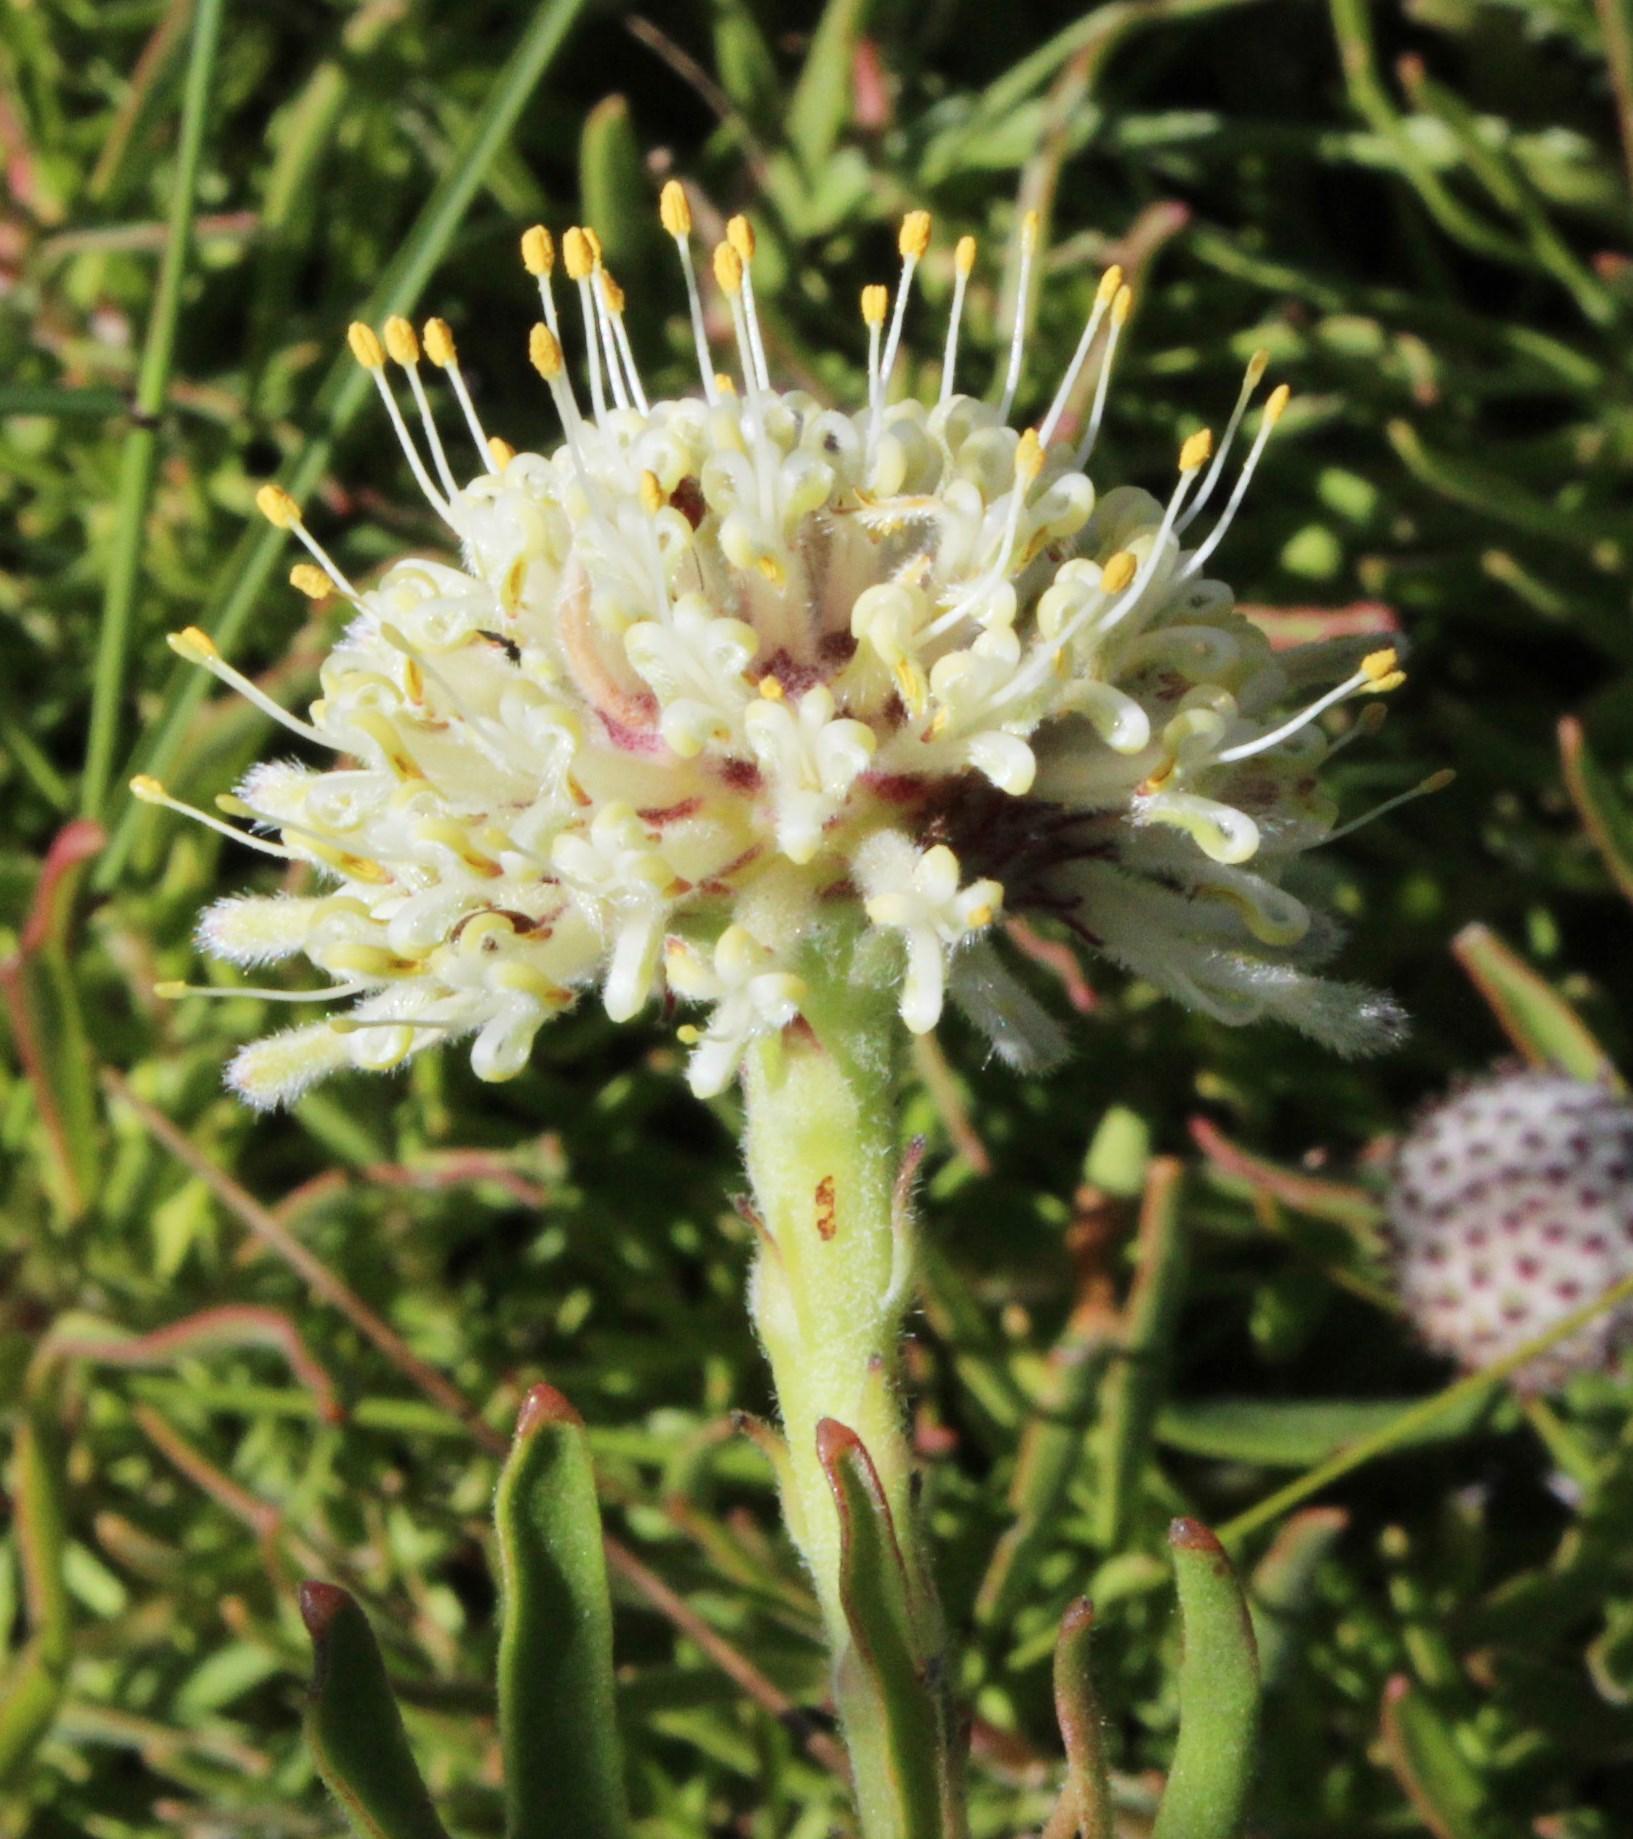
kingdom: Plantae
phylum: Tracheophyta
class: Magnoliopsida
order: Proteales
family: Proteaceae
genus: Leucospermum
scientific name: Leucospermum pedunculatum
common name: White-trailing pincushion
